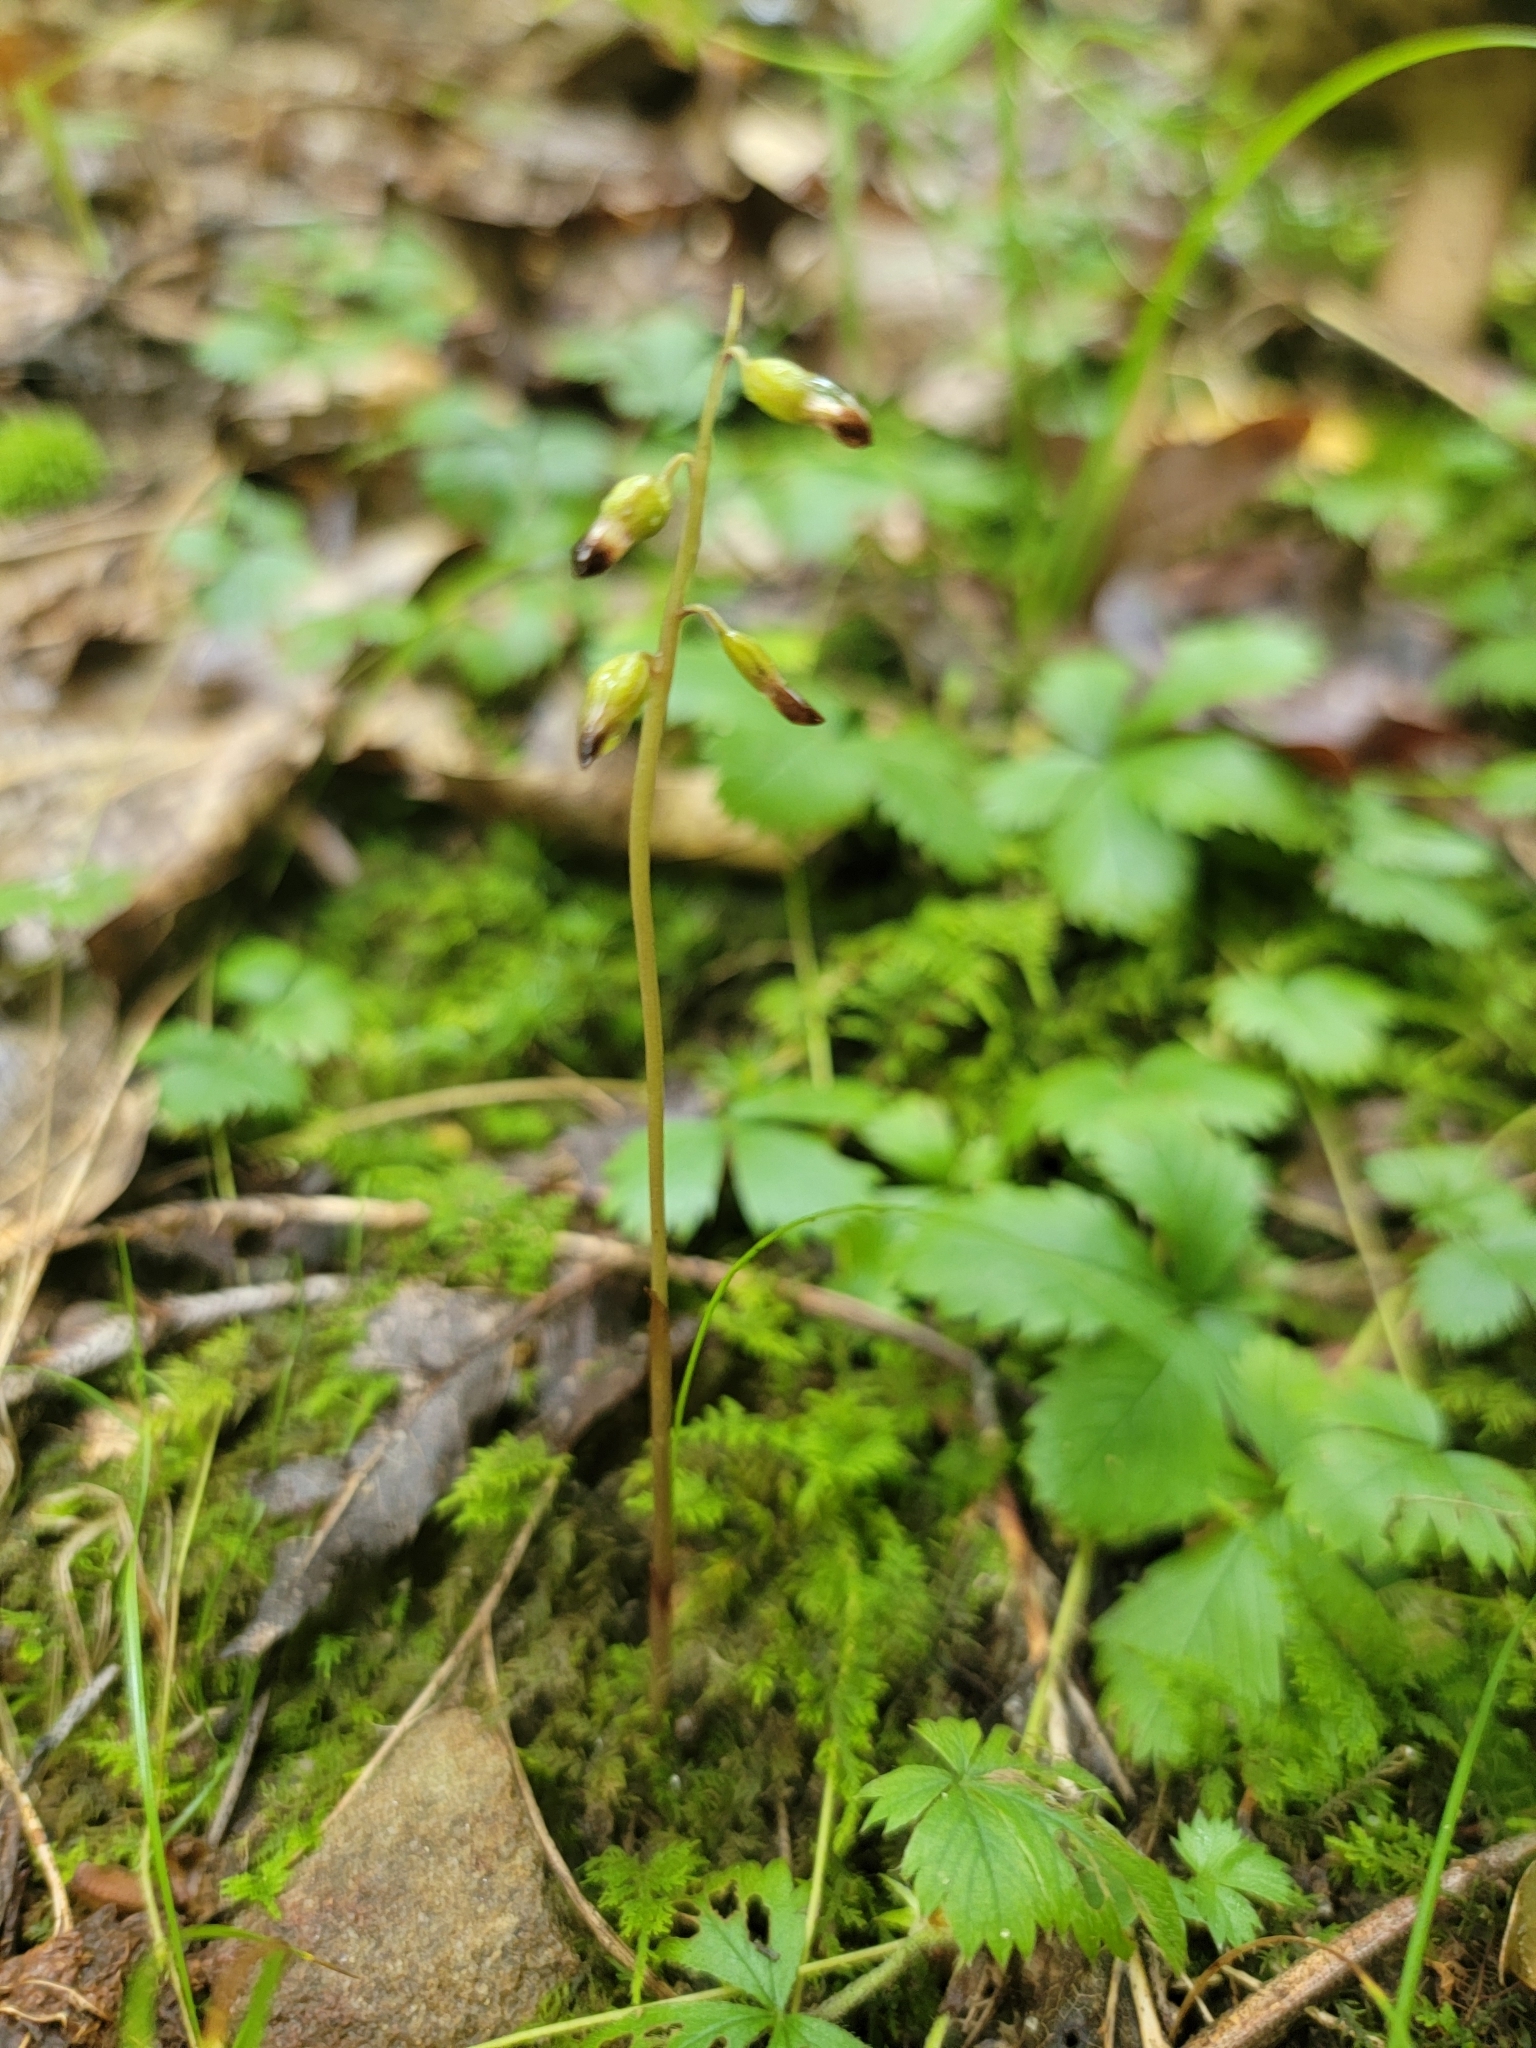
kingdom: Plantae
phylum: Tracheophyta
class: Liliopsida
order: Asparagales
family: Orchidaceae
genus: Corallorhiza
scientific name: Corallorhiza odontorhiza
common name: Autumn coralroot
